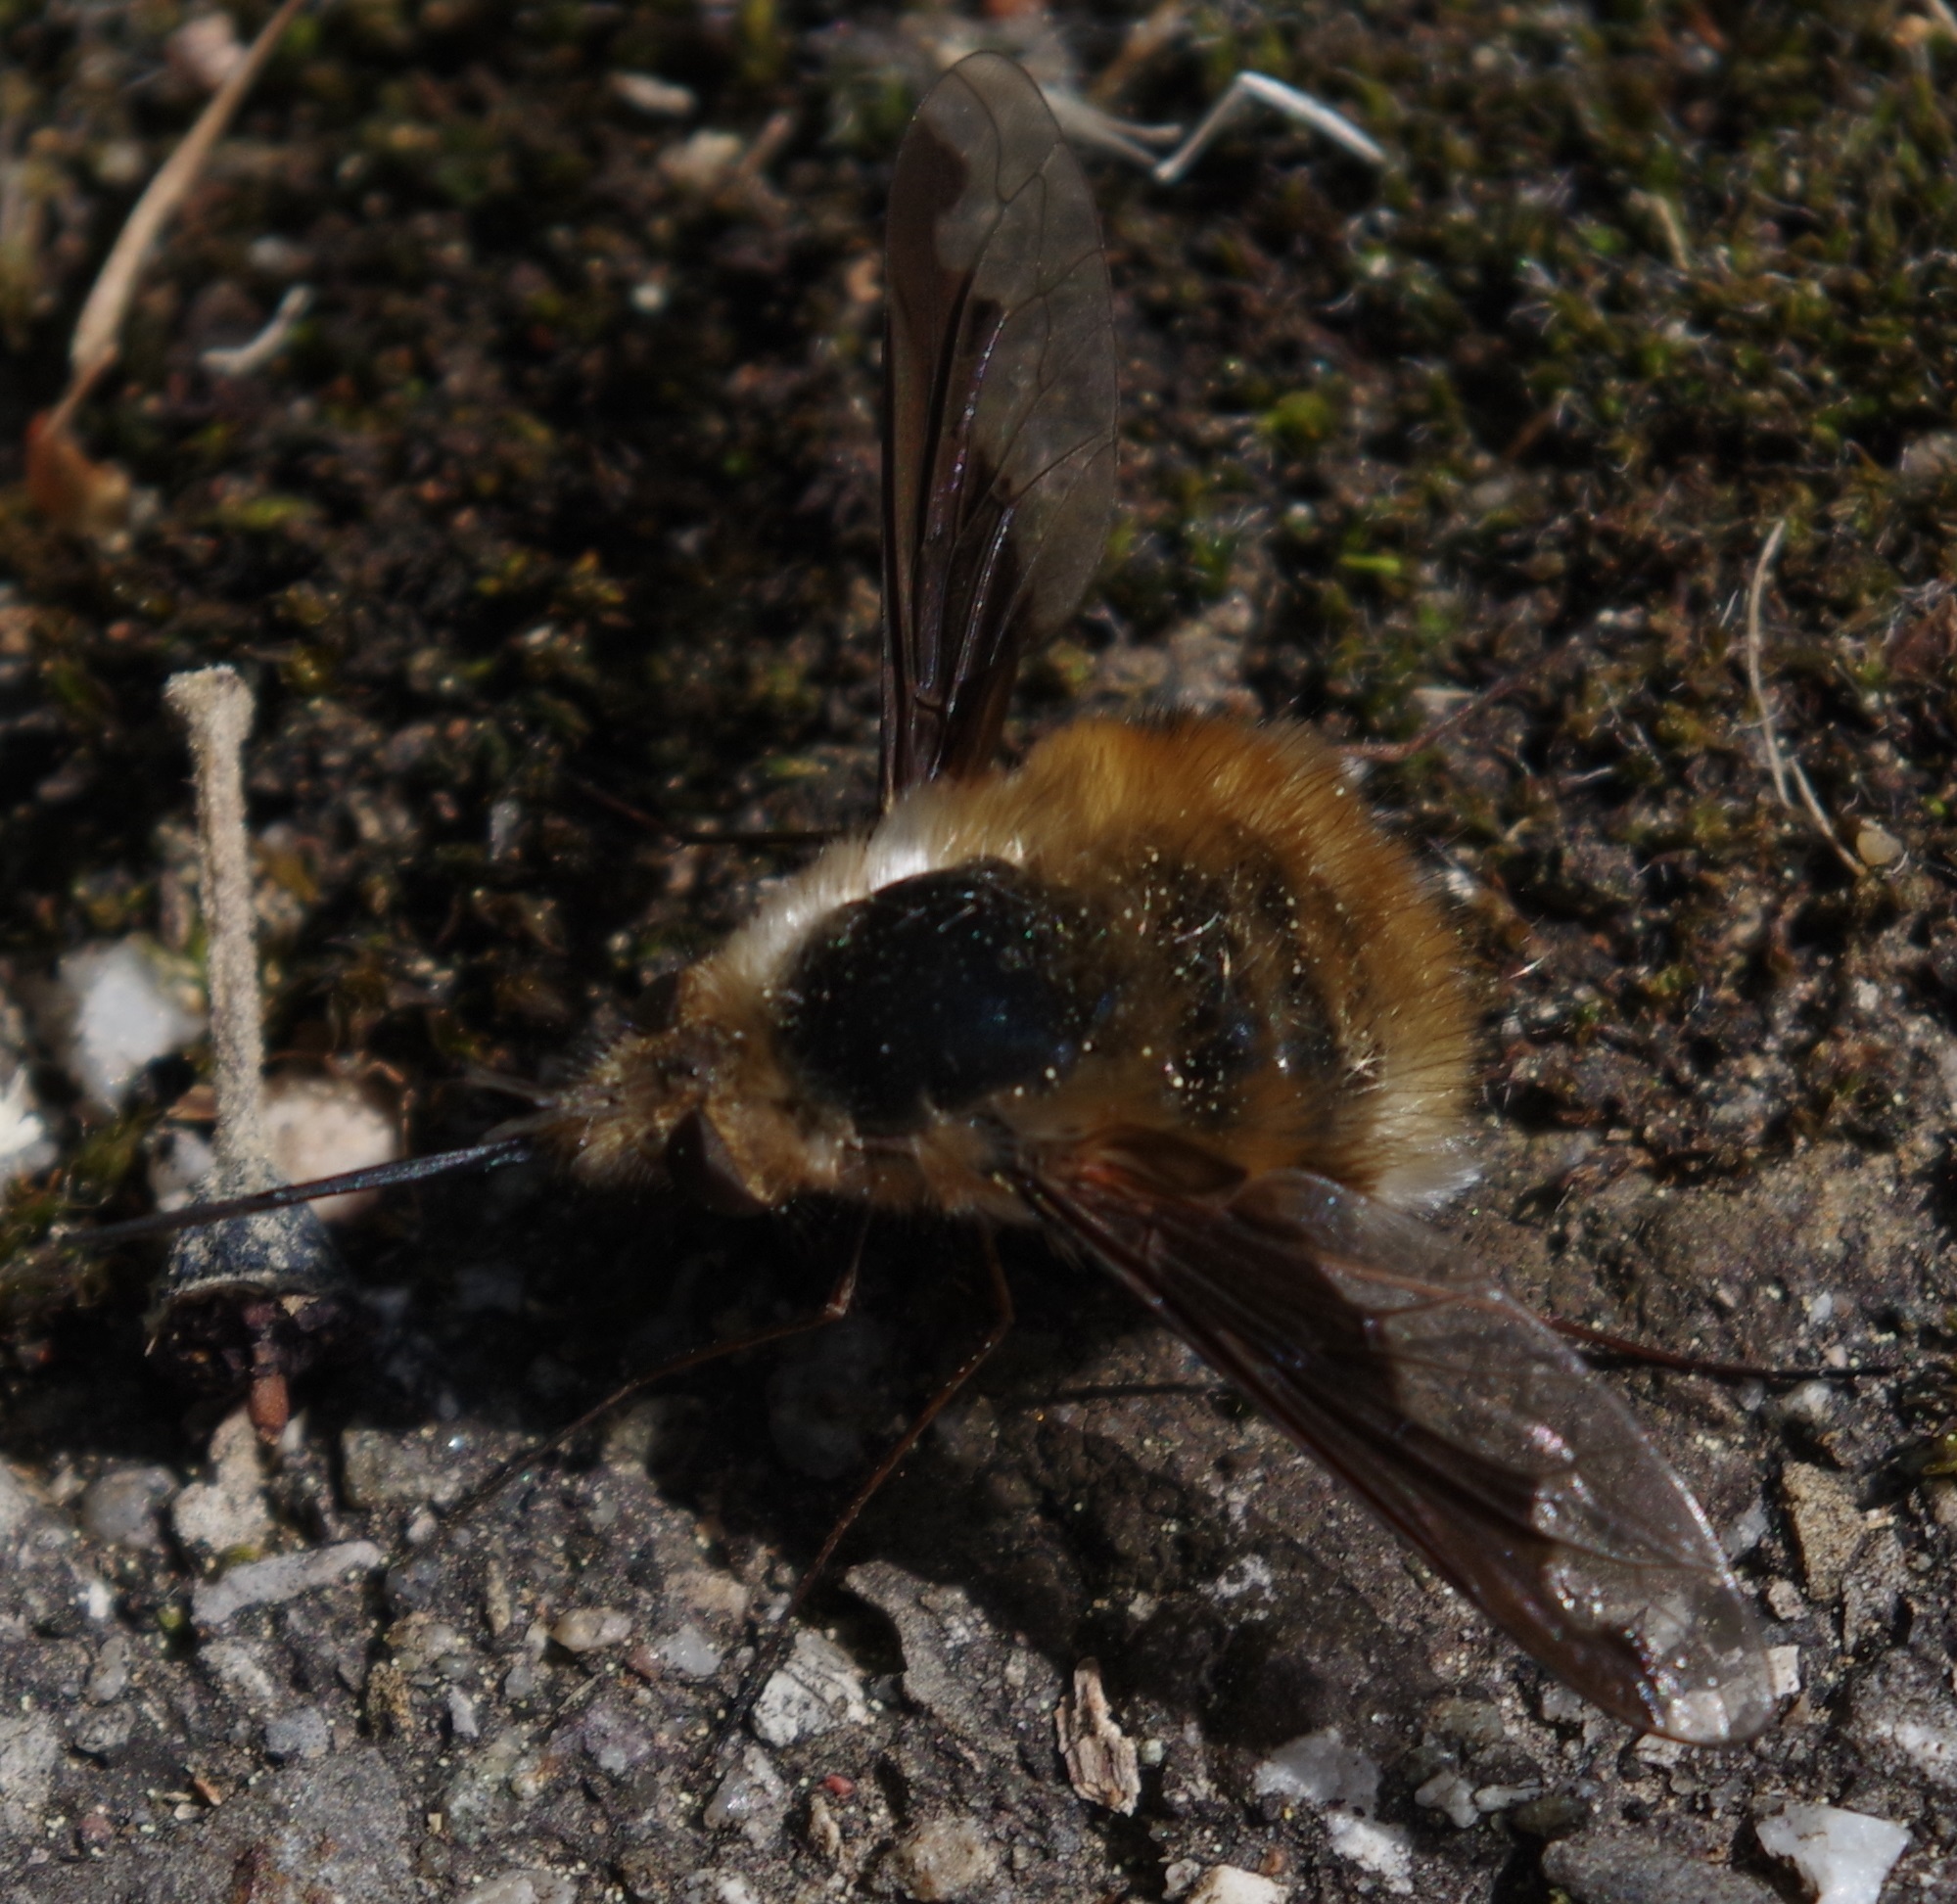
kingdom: Animalia
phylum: Arthropoda
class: Insecta
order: Diptera
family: Bombyliidae
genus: Bombylius
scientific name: Bombylius major
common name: Bee fly
